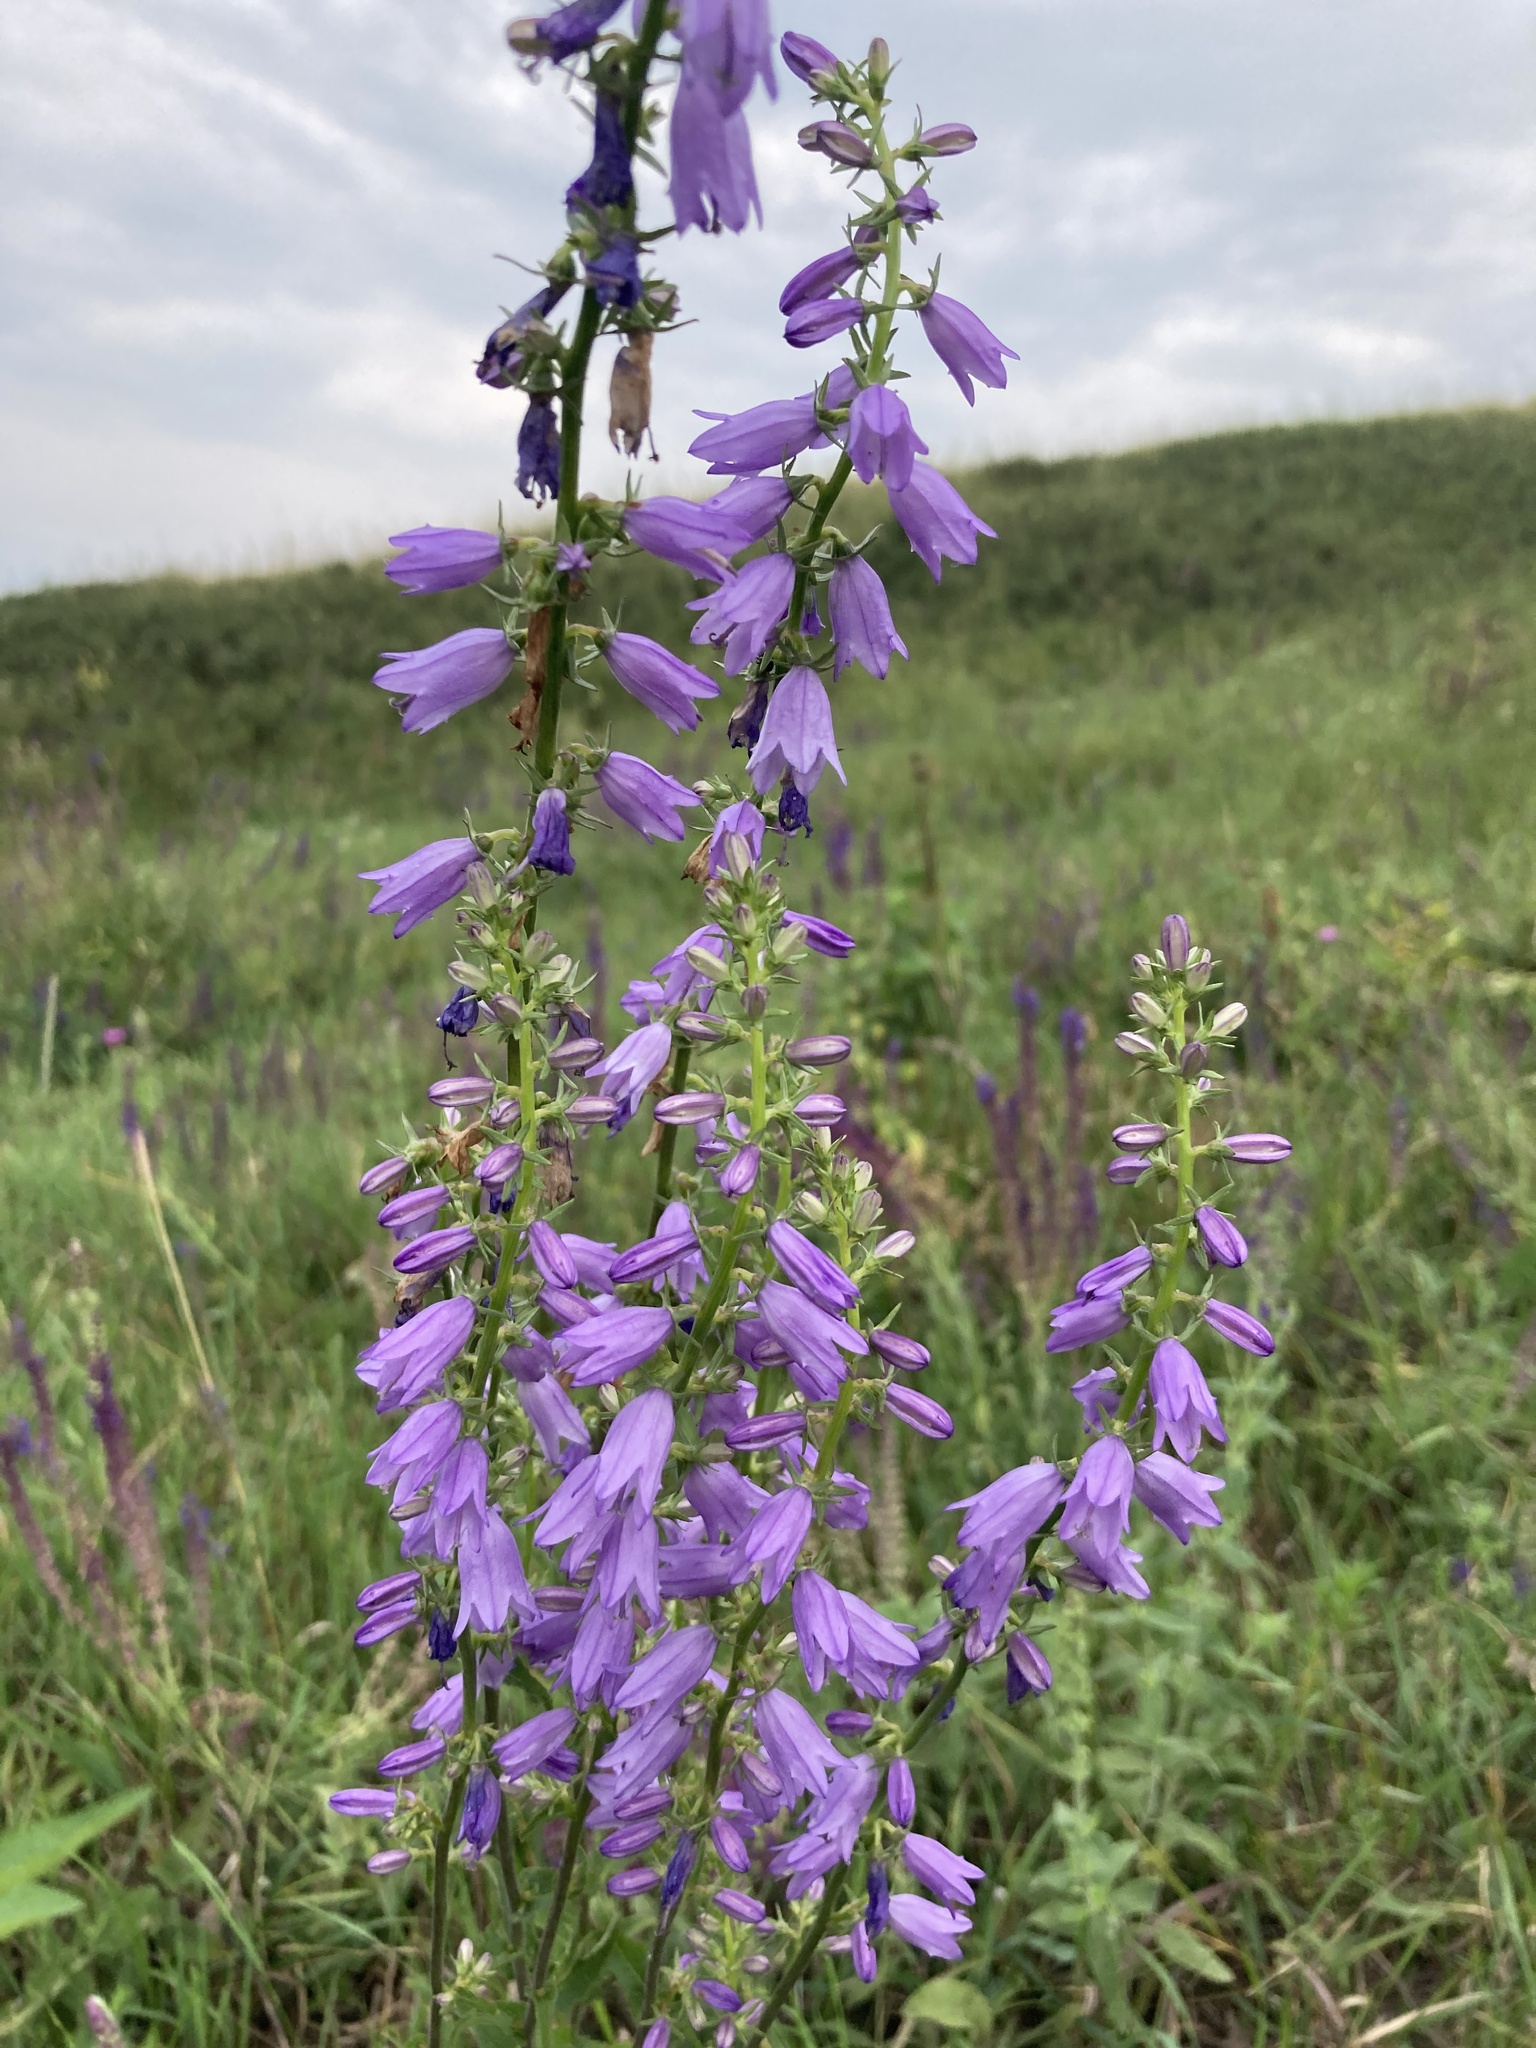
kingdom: Plantae
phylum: Tracheophyta
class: Magnoliopsida
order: Asterales
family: Campanulaceae
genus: Campanula
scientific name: Campanula bononiensis
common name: Pale bellflower
